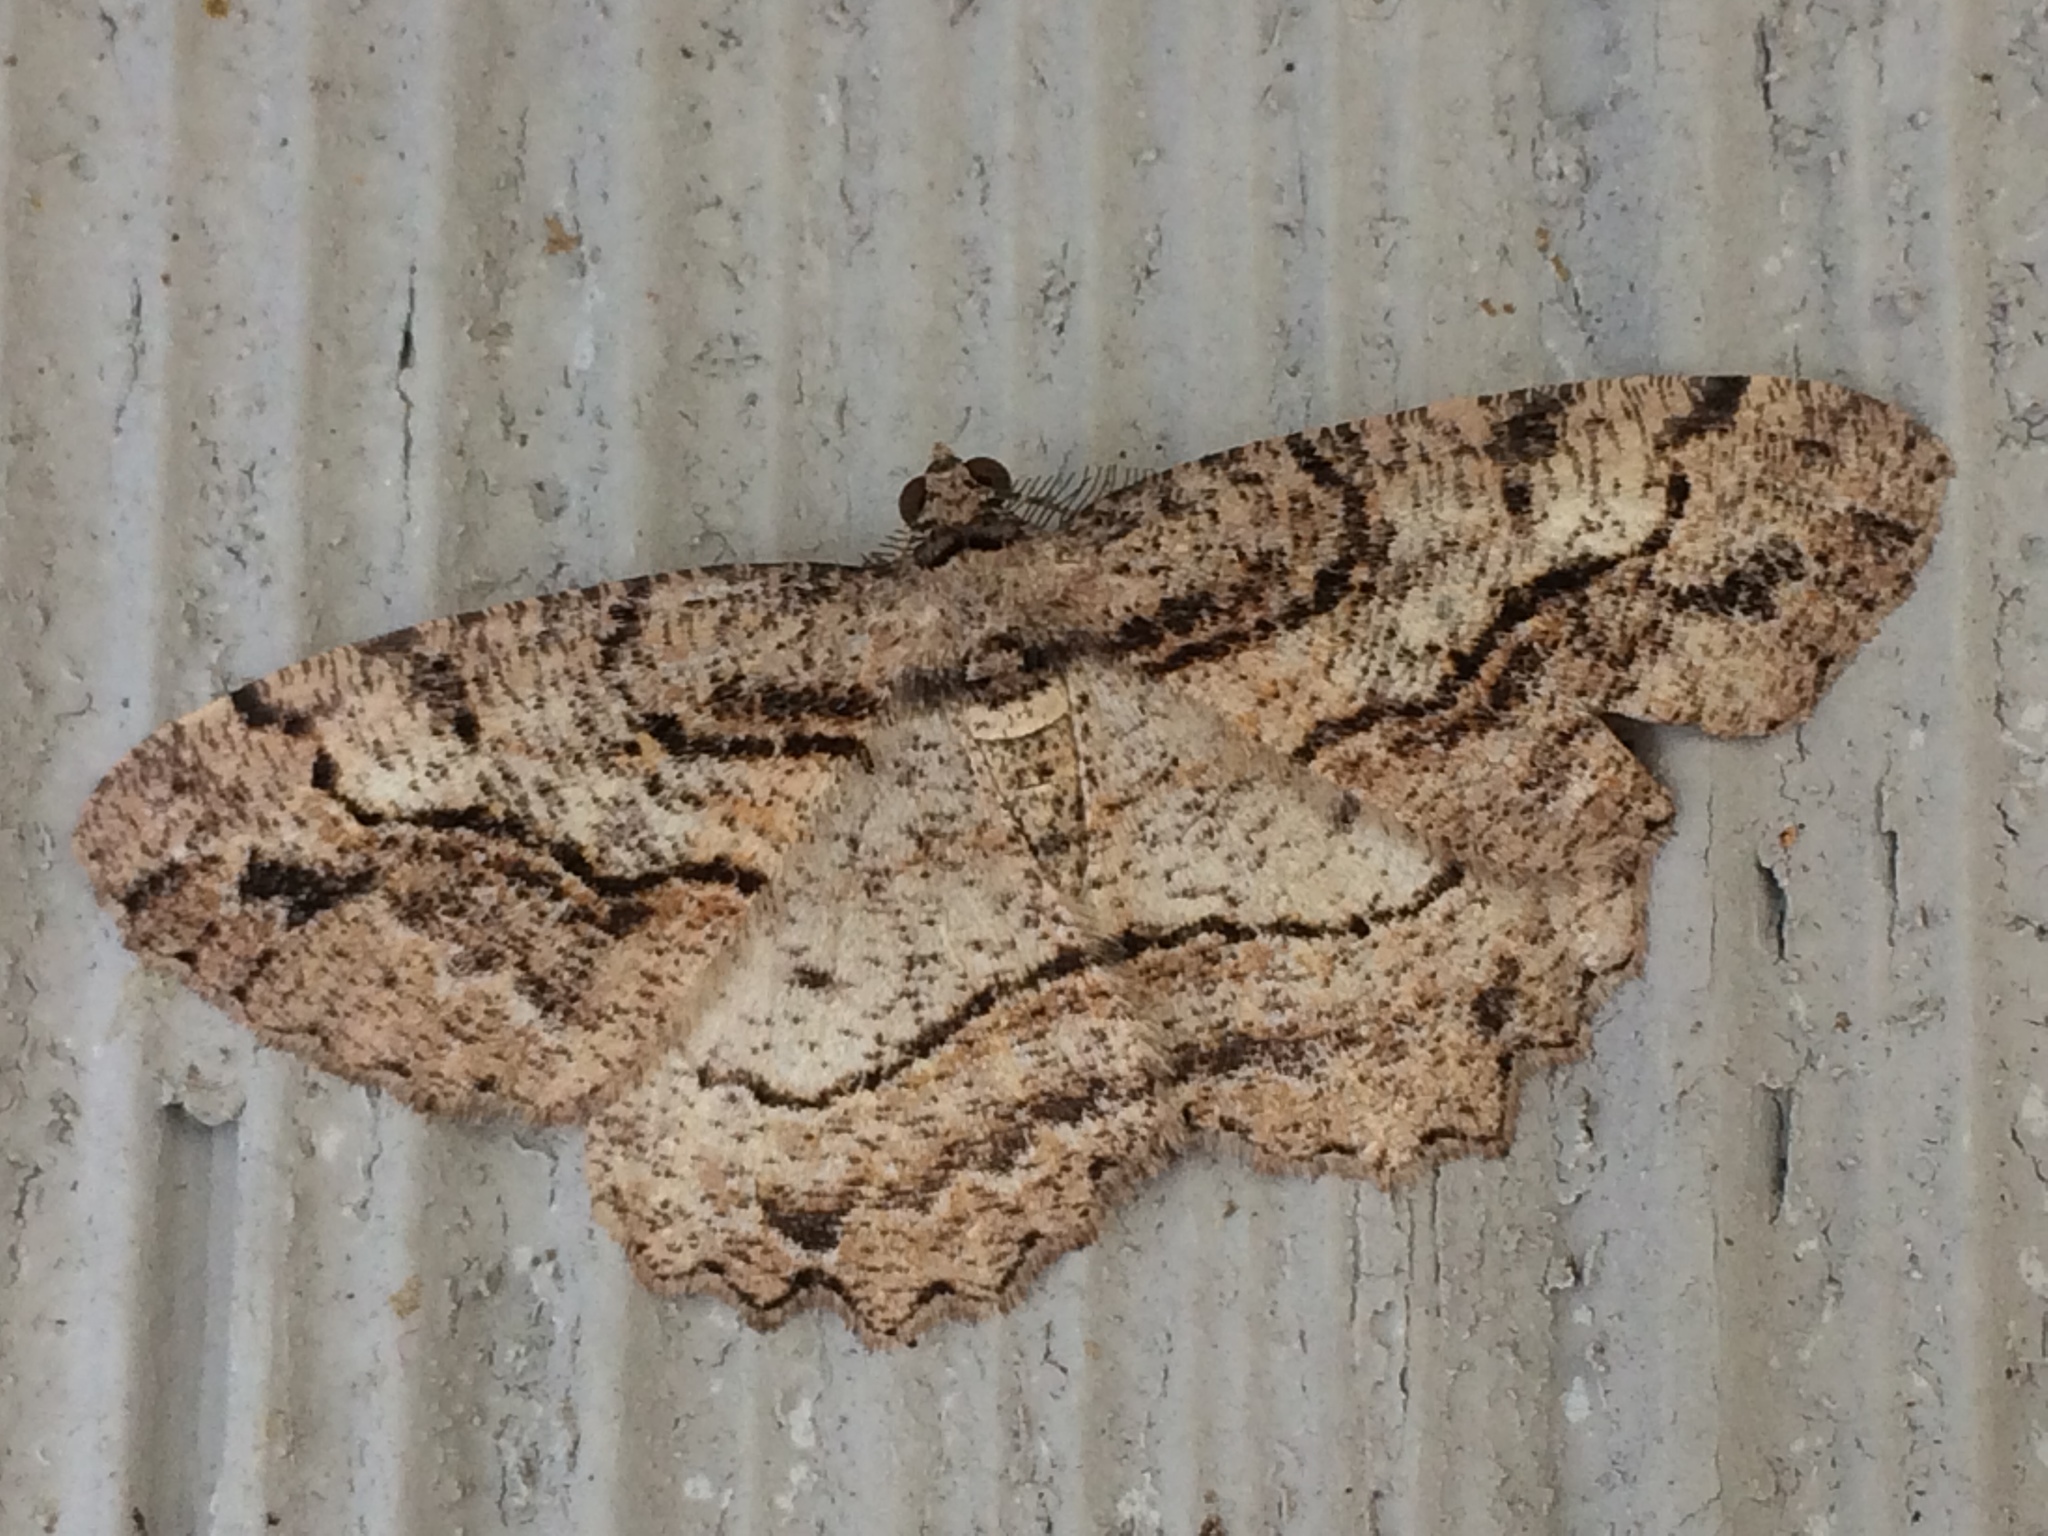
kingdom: Animalia
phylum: Arthropoda
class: Insecta
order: Lepidoptera
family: Geometridae
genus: Neoalcis
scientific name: Neoalcis californiaria
